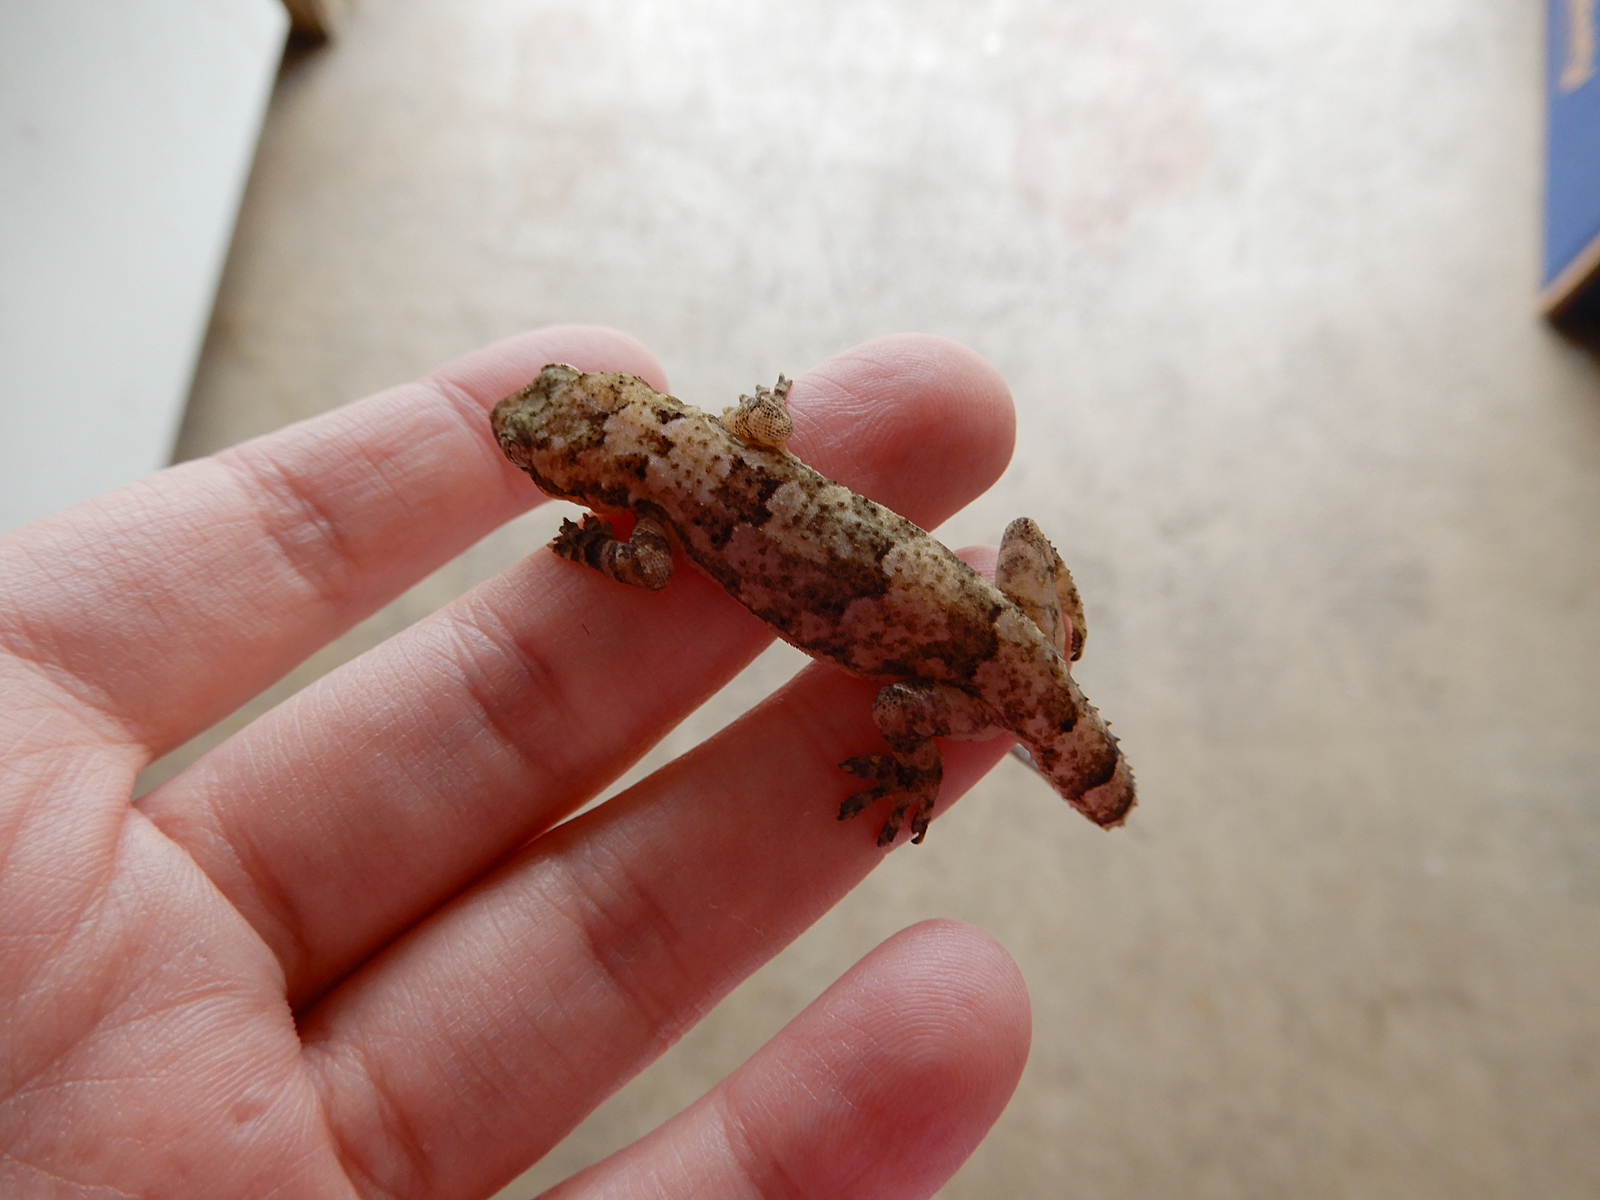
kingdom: Animalia
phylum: Chordata
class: Squamata
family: Gekkonidae
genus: Hemidactylus
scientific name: Hemidactylus mabouia
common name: House gecko
